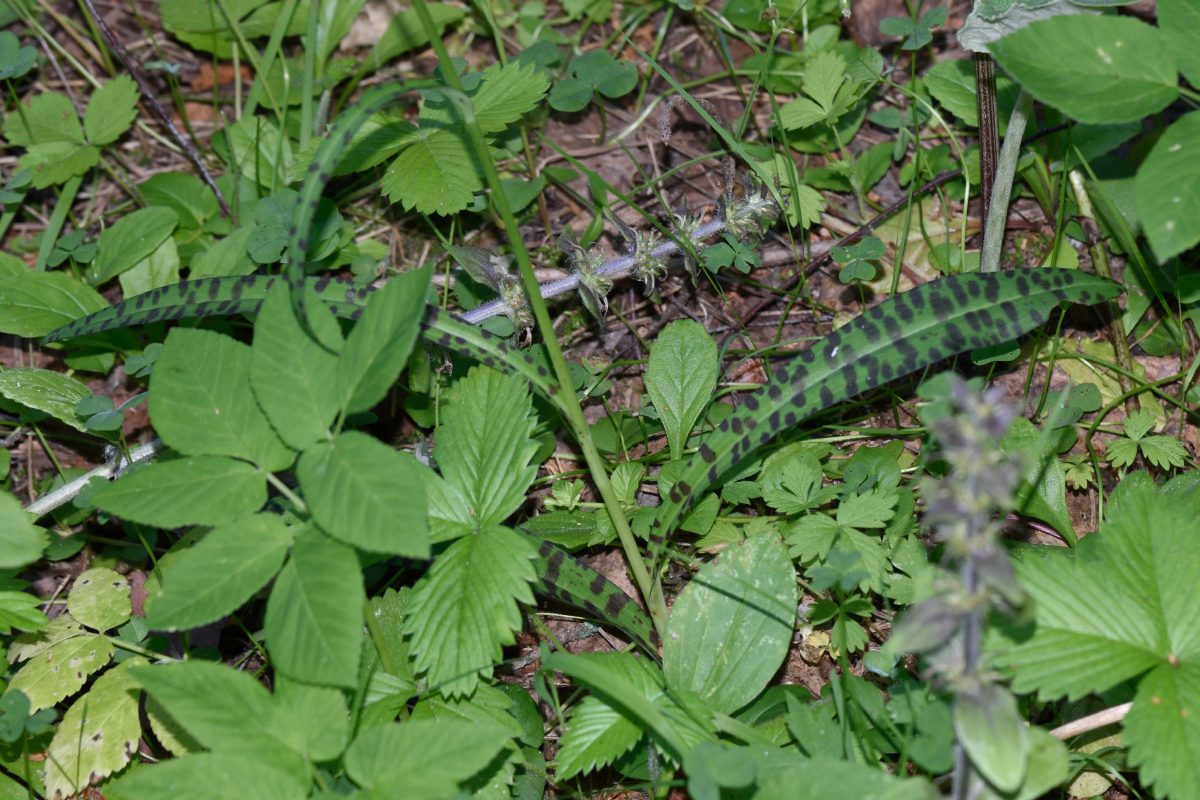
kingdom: Plantae
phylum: Tracheophyta
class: Liliopsida
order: Asparagales
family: Orchidaceae
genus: Dactylorhiza
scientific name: Dactylorhiza maculata
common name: Heath spotted-orchid
